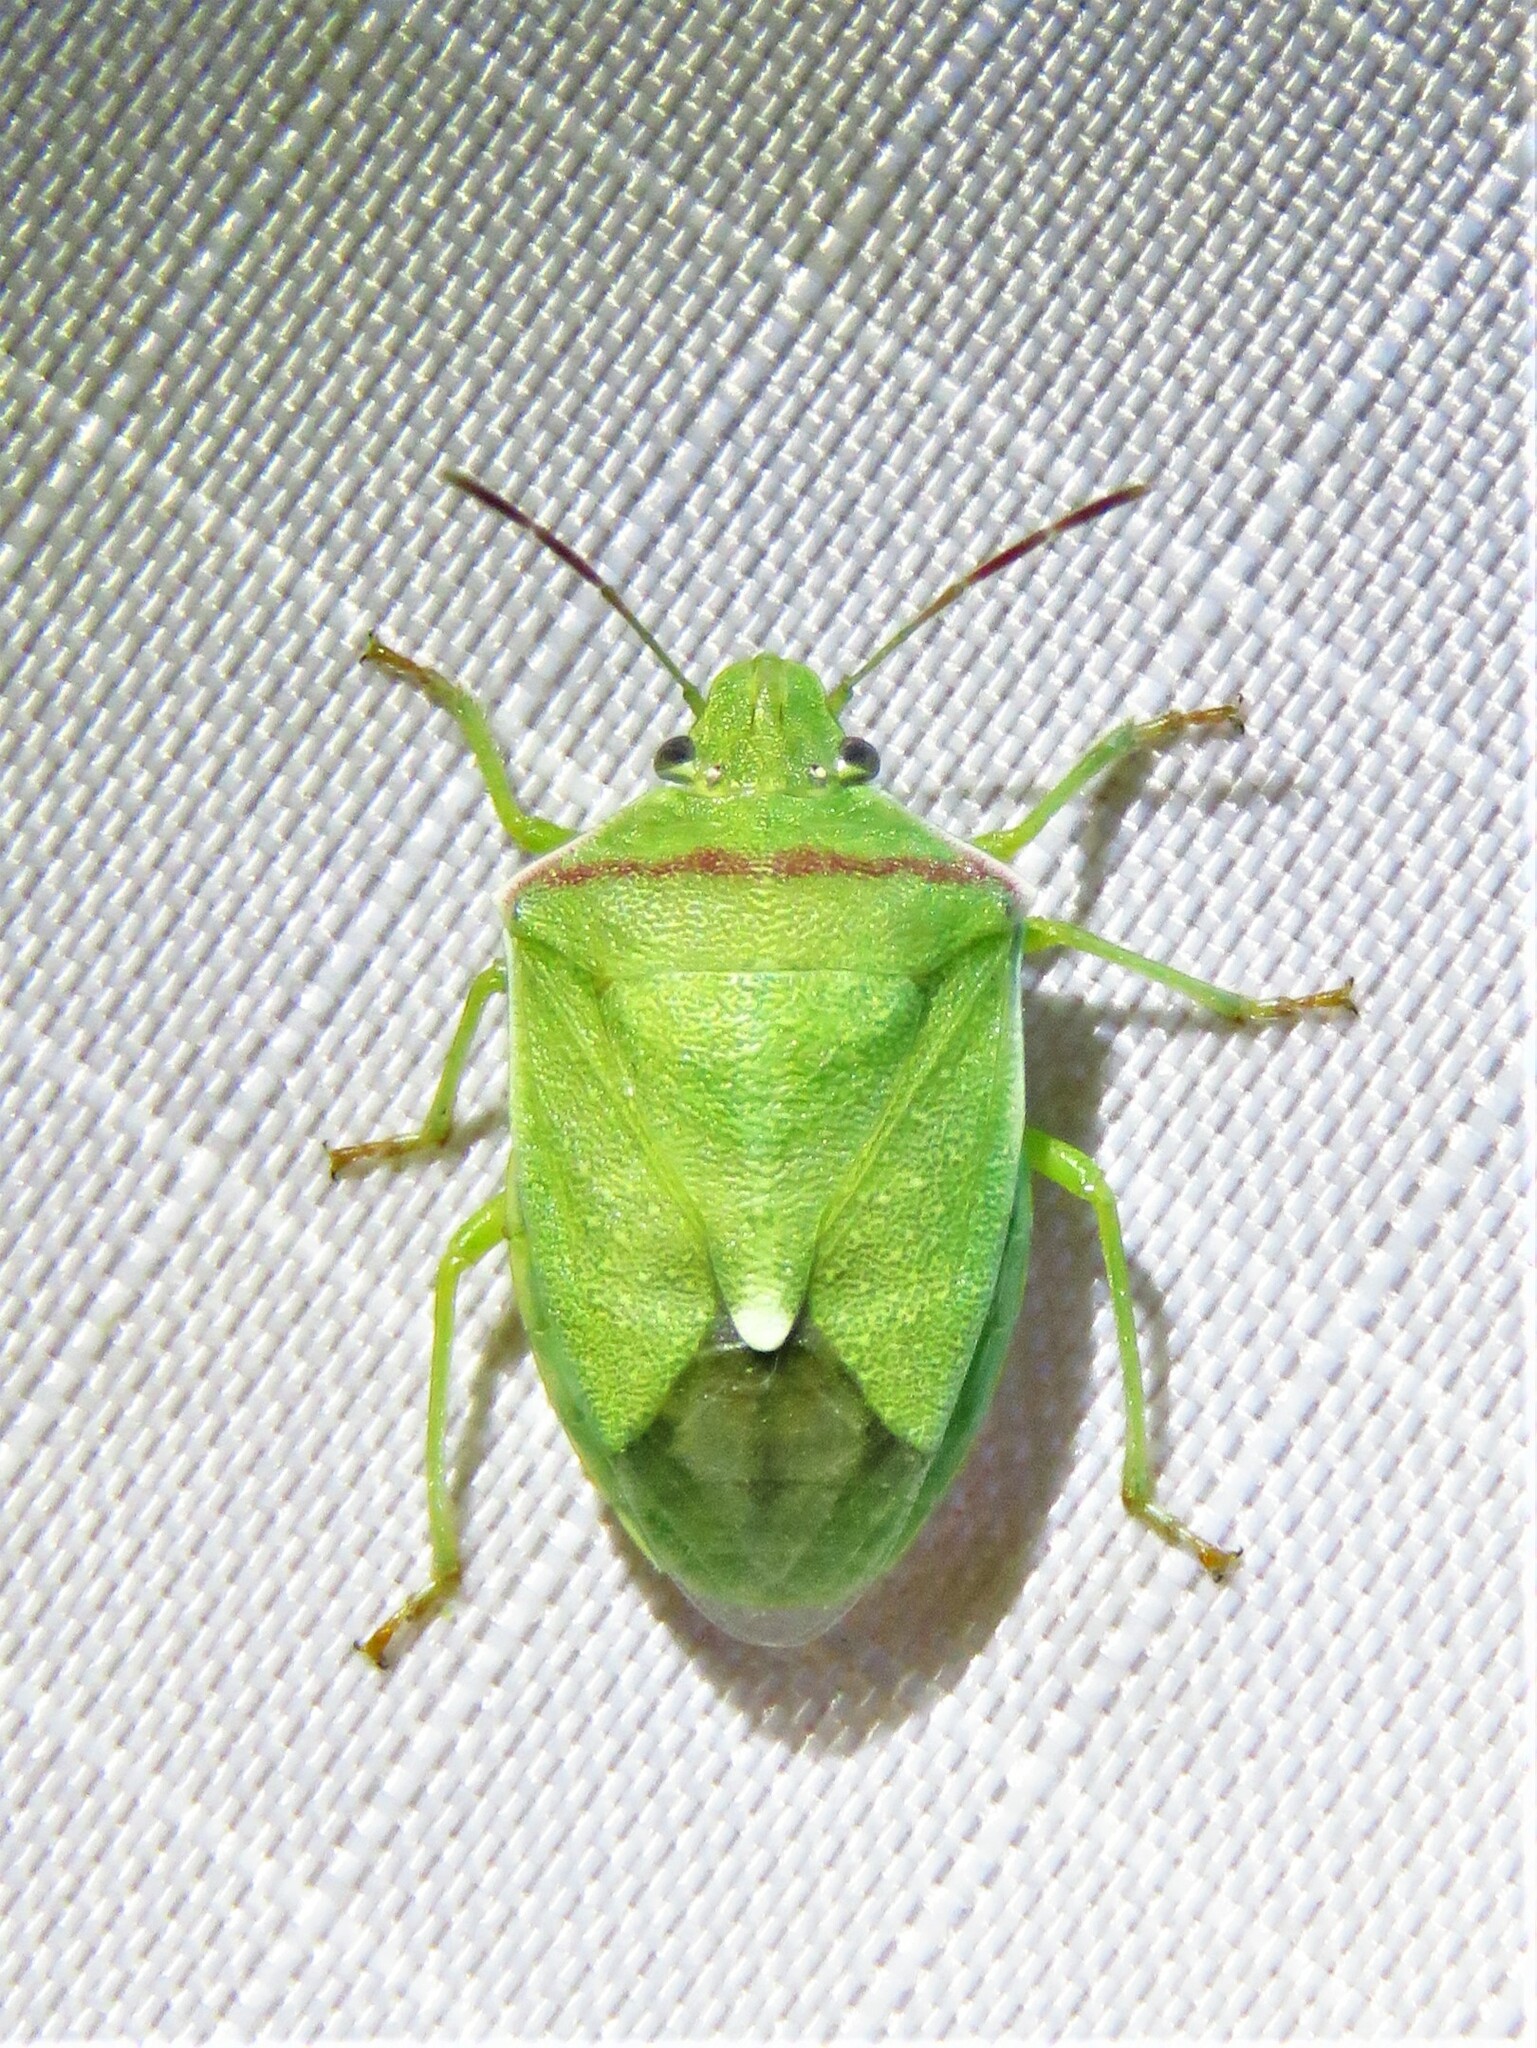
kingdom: Animalia
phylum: Arthropoda
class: Insecta
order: Hemiptera
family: Pentatomidae
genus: Thyanta
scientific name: Thyanta custator
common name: Stink bug
